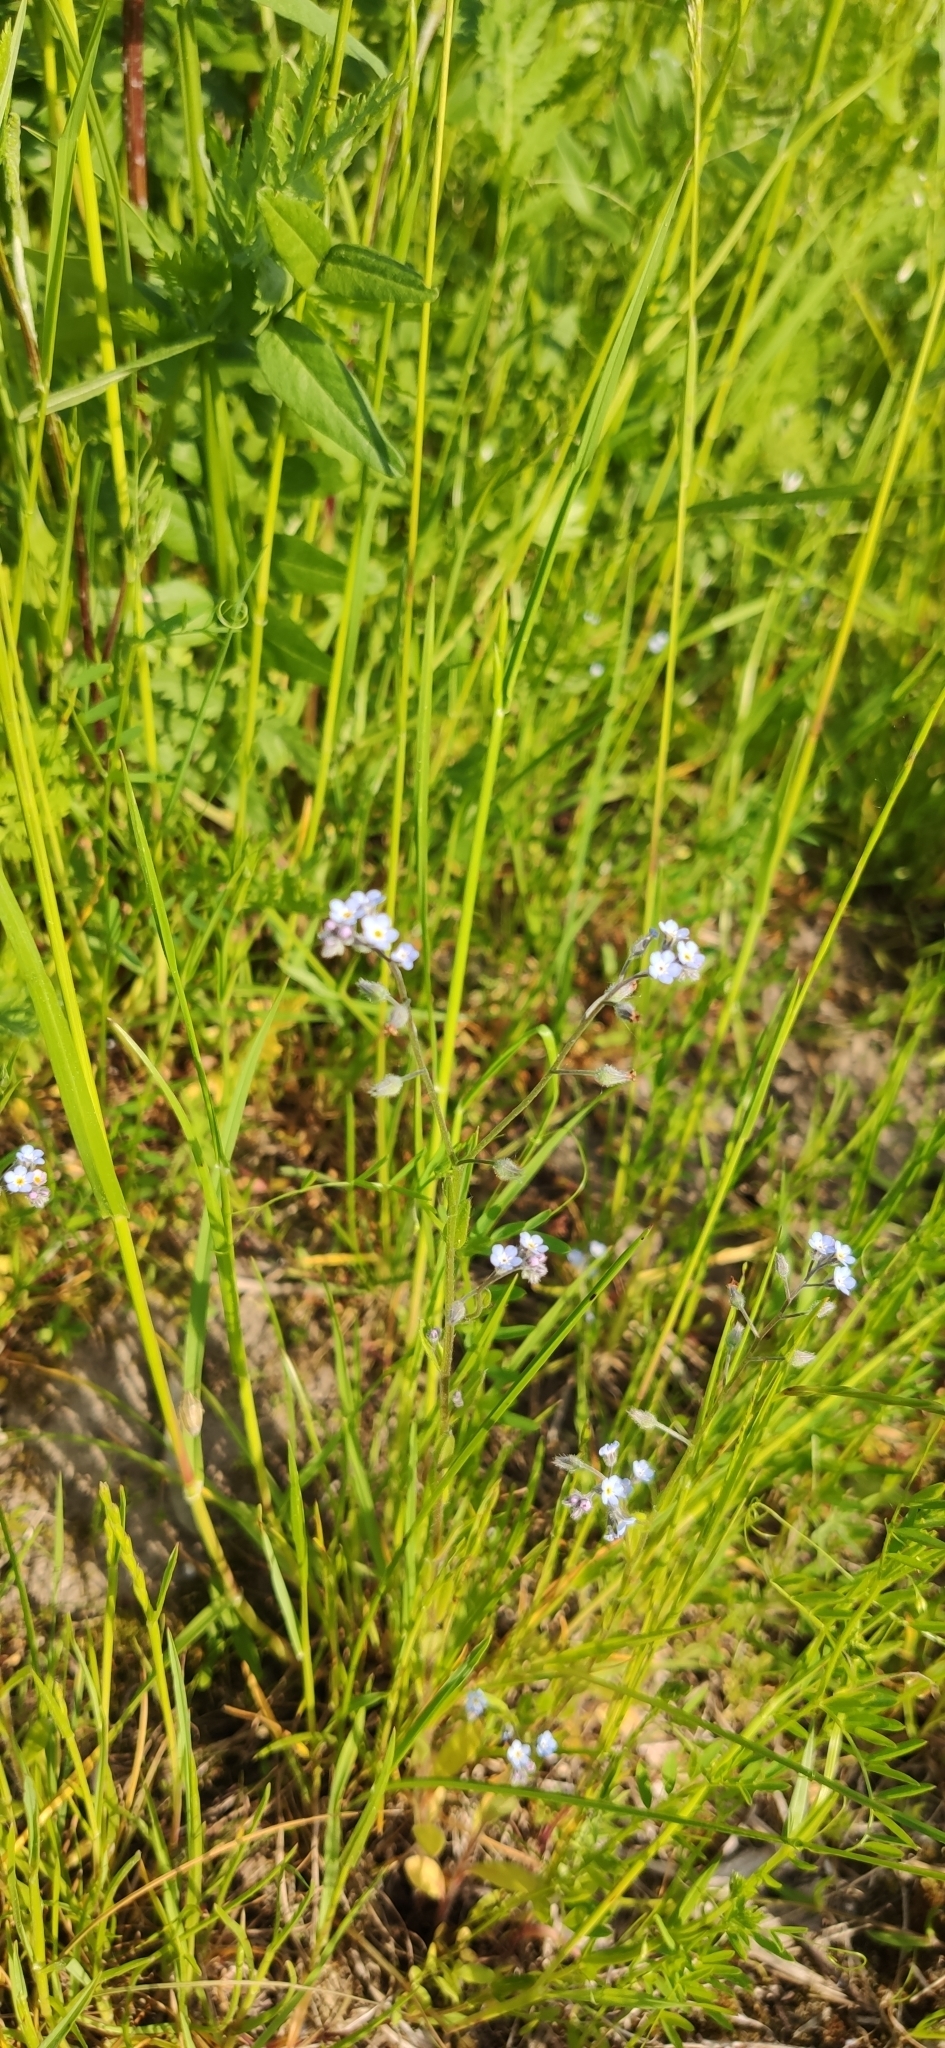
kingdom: Plantae
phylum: Tracheophyta
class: Magnoliopsida
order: Boraginales
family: Boraginaceae
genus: Myosotis
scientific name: Myosotis arvensis
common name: Field forget-me-not
